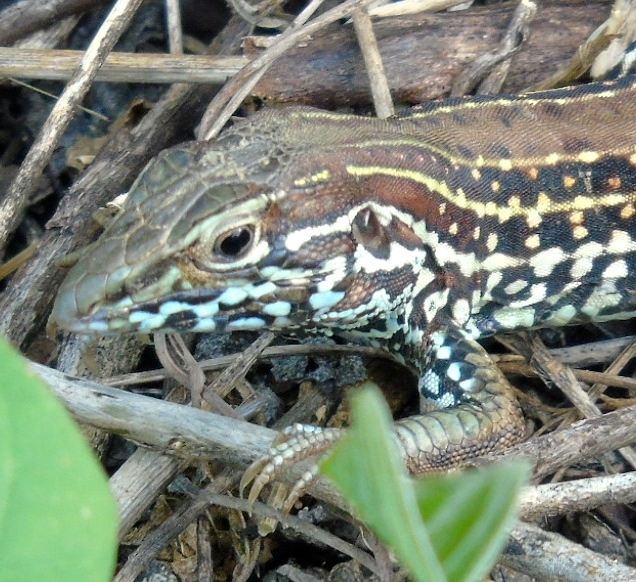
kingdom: Animalia
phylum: Chordata
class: Squamata
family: Teiidae
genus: Aspidoscelis
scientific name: Aspidoscelis costatus
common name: Western mexico whiptail
